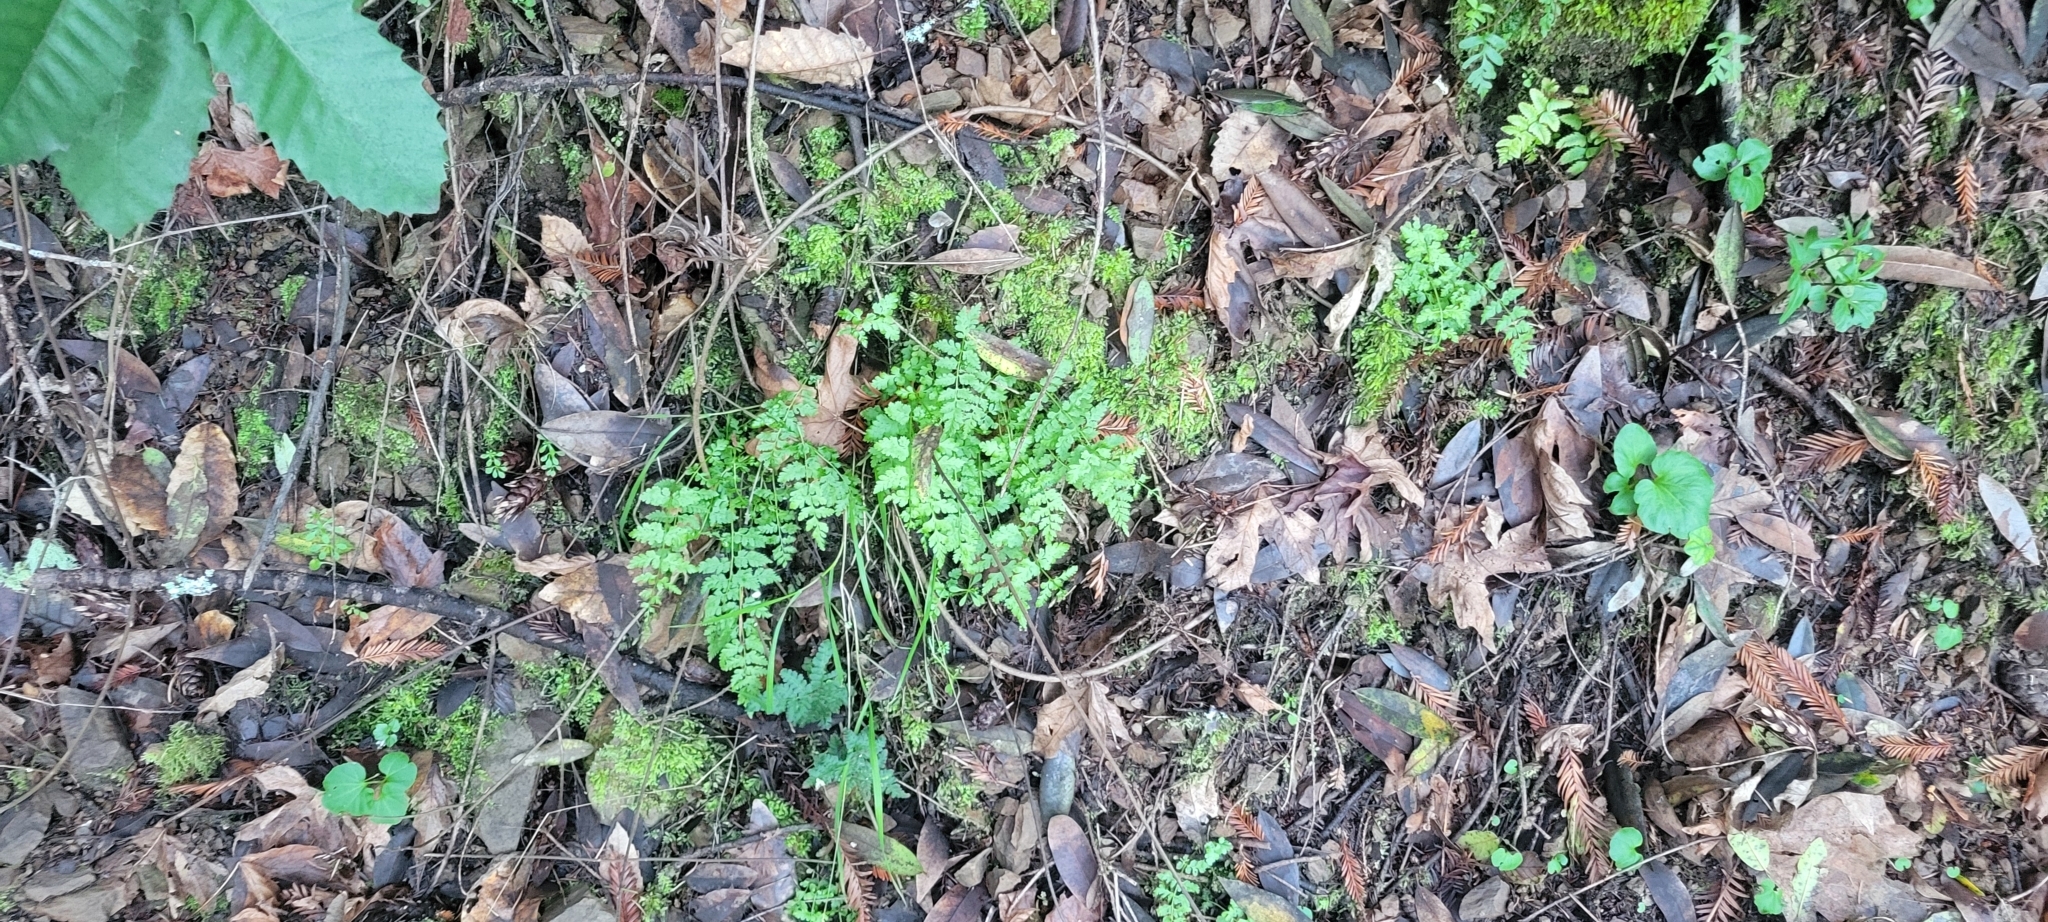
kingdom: Plantae
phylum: Tracheophyta
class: Polypodiopsida
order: Polypodiales
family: Cystopteridaceae
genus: Cystopteris
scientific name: Cystopteris fragilis
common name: Brittle bladder fern
